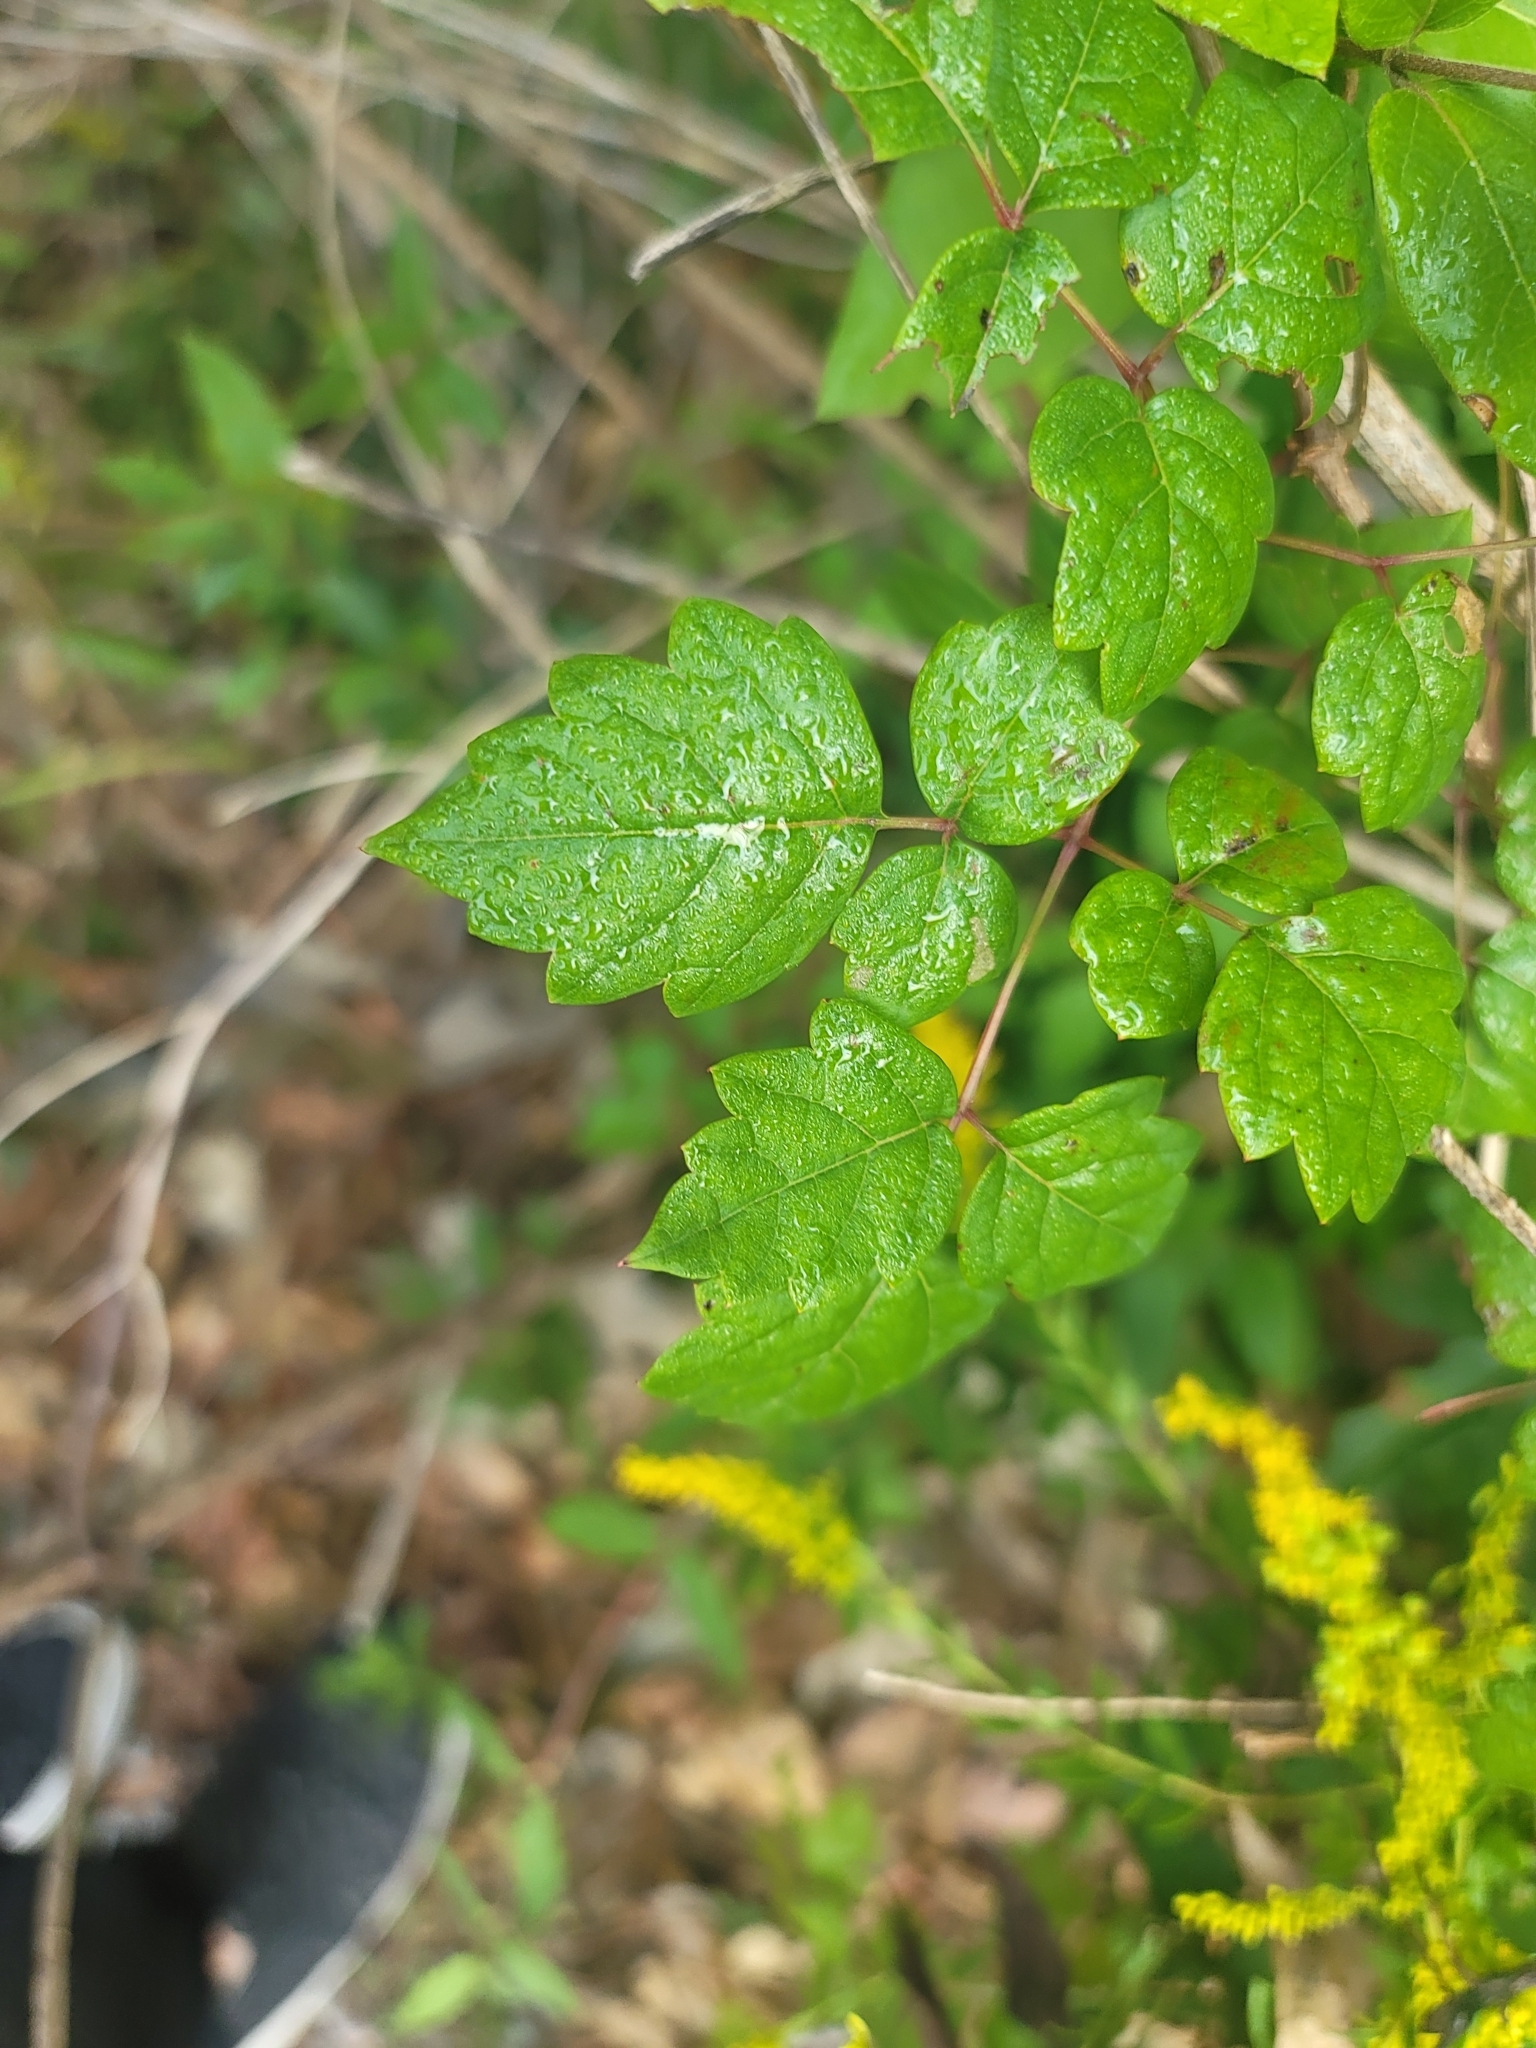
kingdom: Plantae
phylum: Tracheophyta
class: Magnoliopsida
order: Vitales
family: Vitaceae
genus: Nekemias
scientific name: Nekemias arborea
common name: Peppervine
